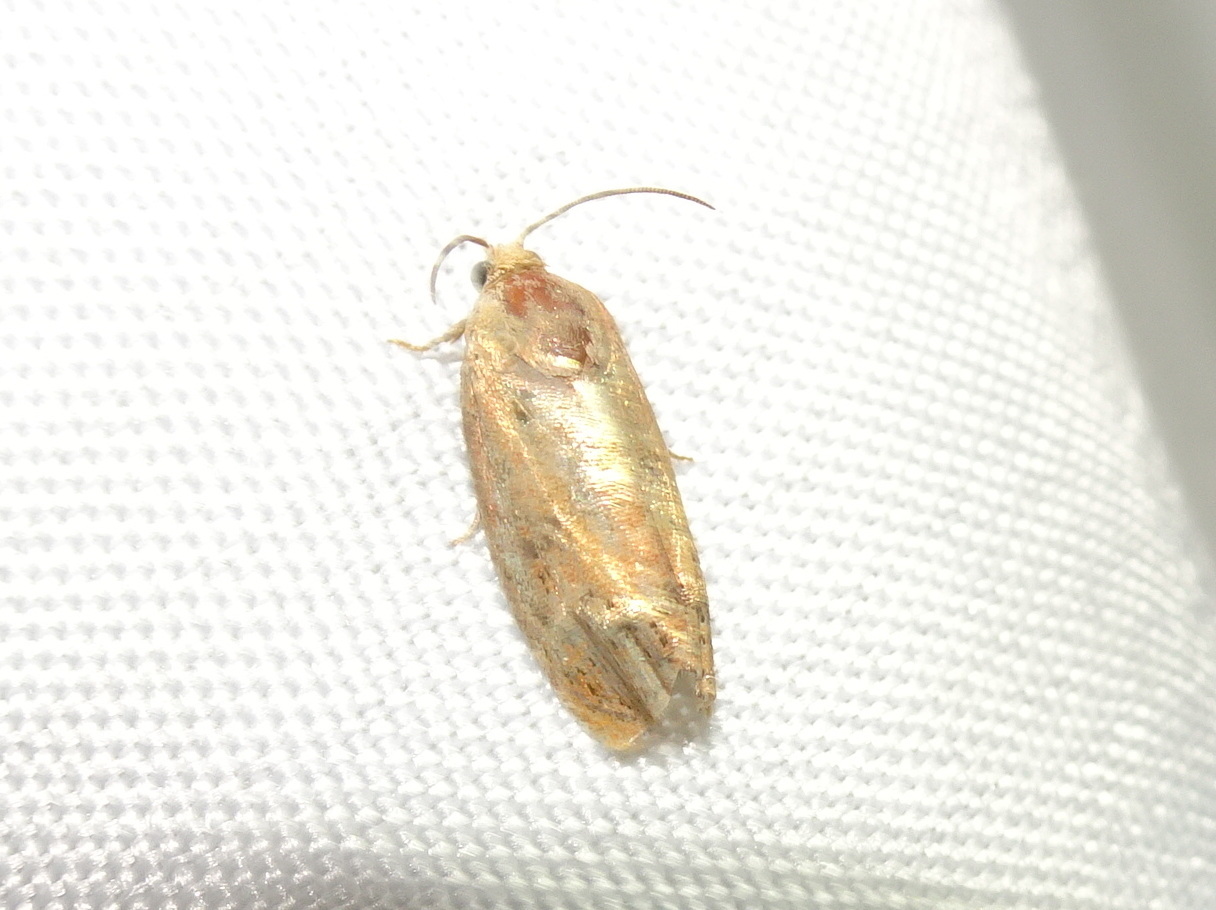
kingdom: Animalia
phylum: Arthropoda
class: Insecta
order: Lepidoptera
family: Tortricidae
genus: Cydia
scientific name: Cydia latiferreana
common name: Filbertworm moth
